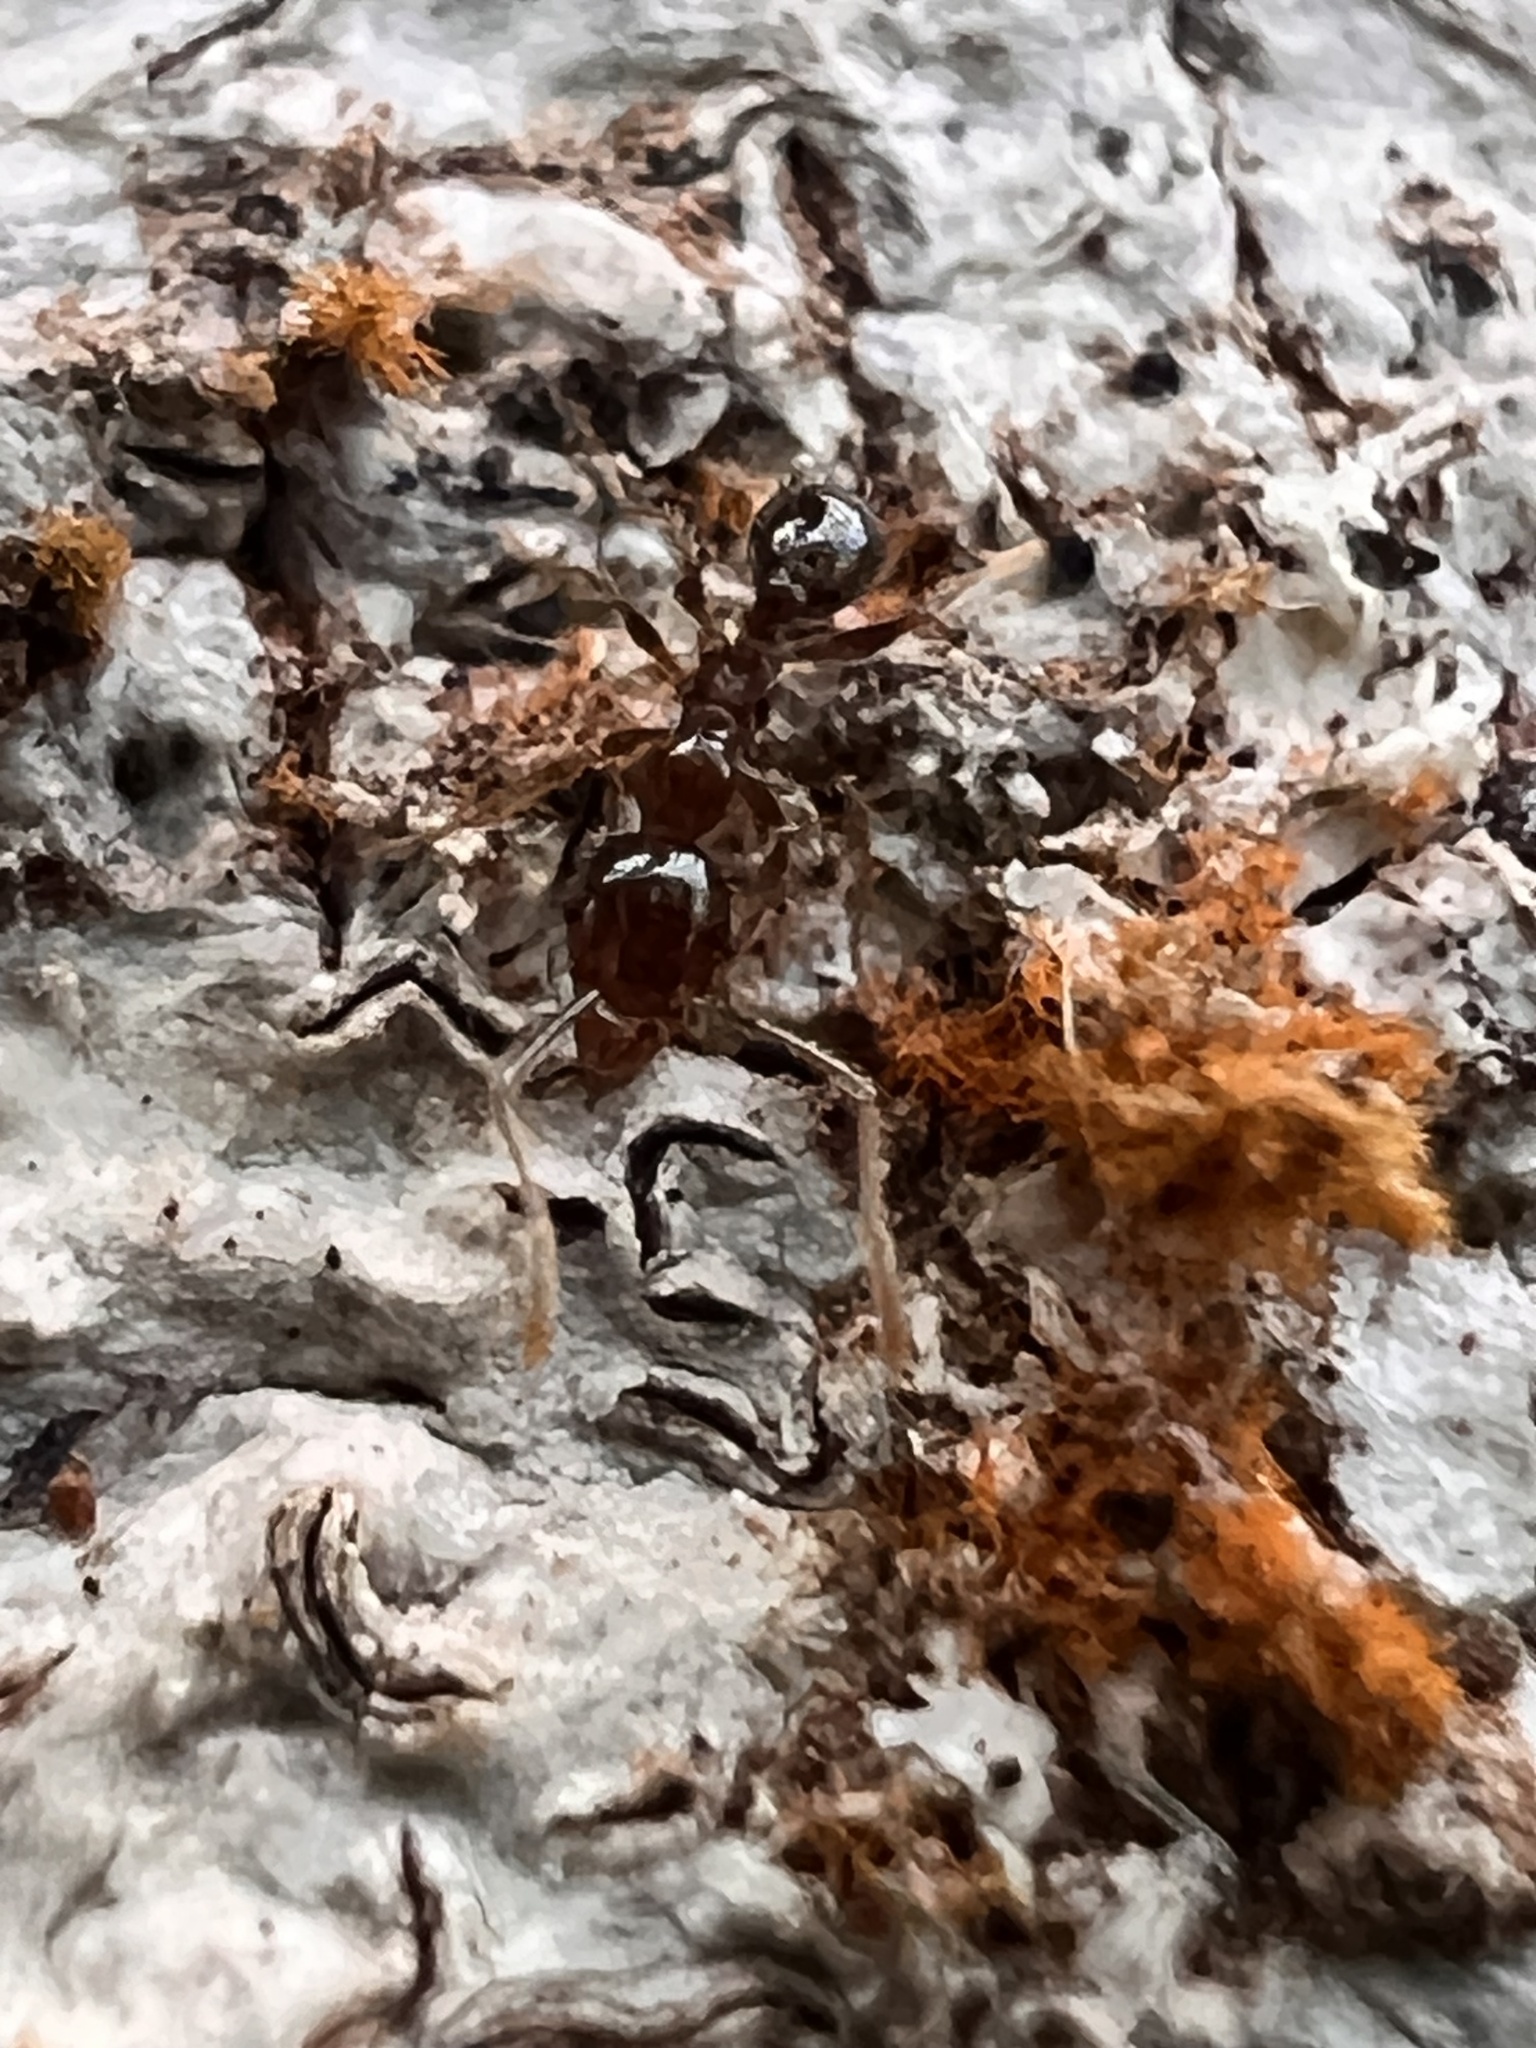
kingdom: Animalia
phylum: Arthropoda
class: Insecta
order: Hymenoptera
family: Formicidae
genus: Pheidole
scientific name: Pheidole megacephala
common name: Bigheaded ant
